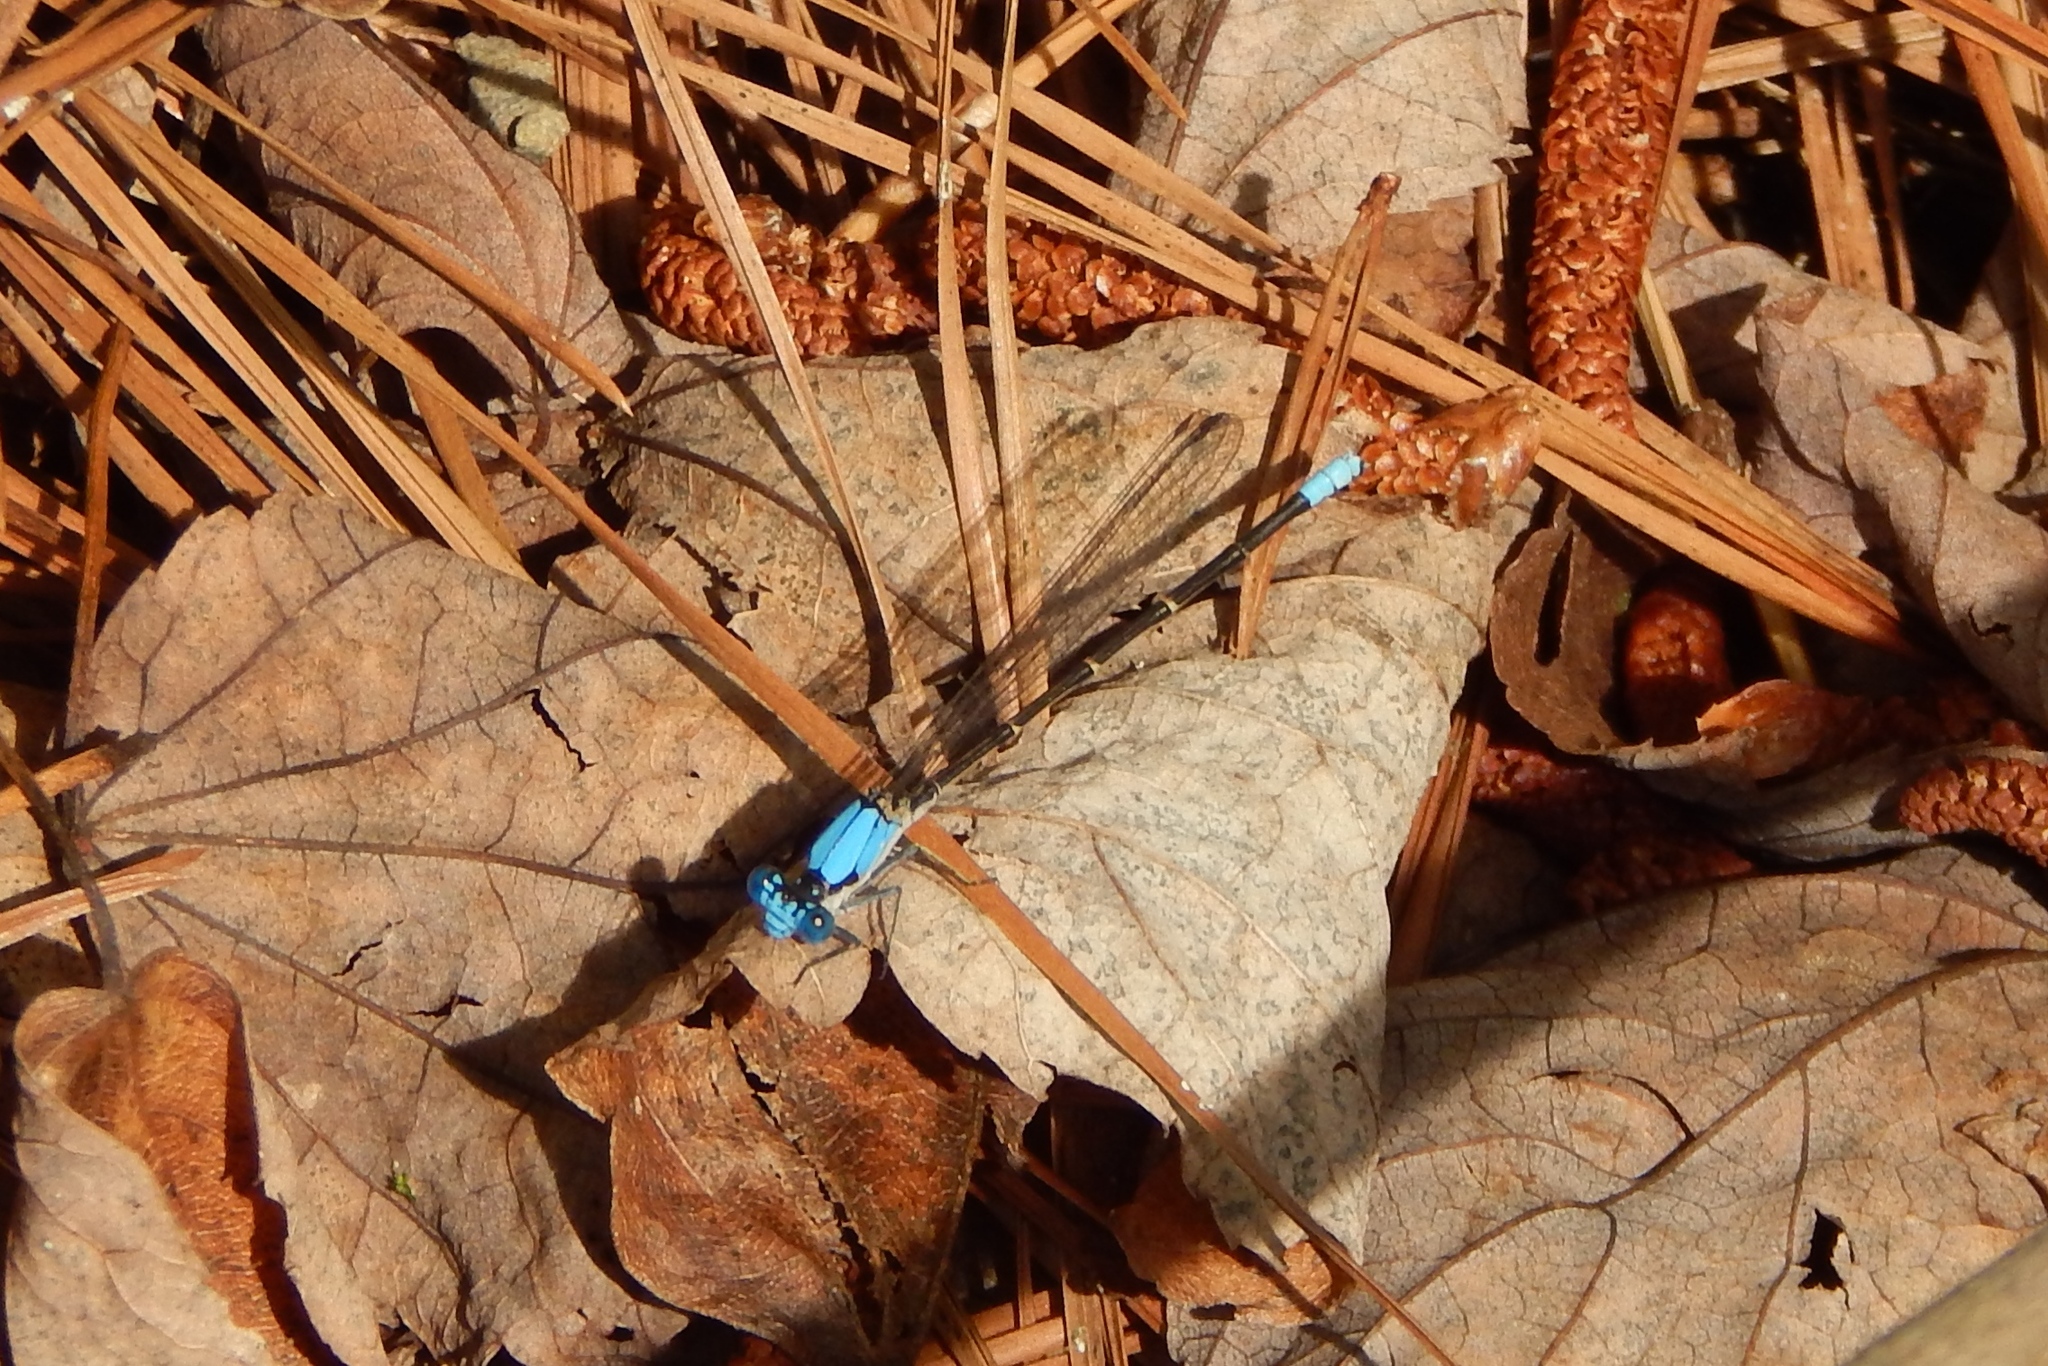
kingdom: Animalia
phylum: Arthropoda
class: Insecta
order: Odonata
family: Coenagrionidae
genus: Argia
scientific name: Argia apicalis
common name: Blue-fronted dancer
